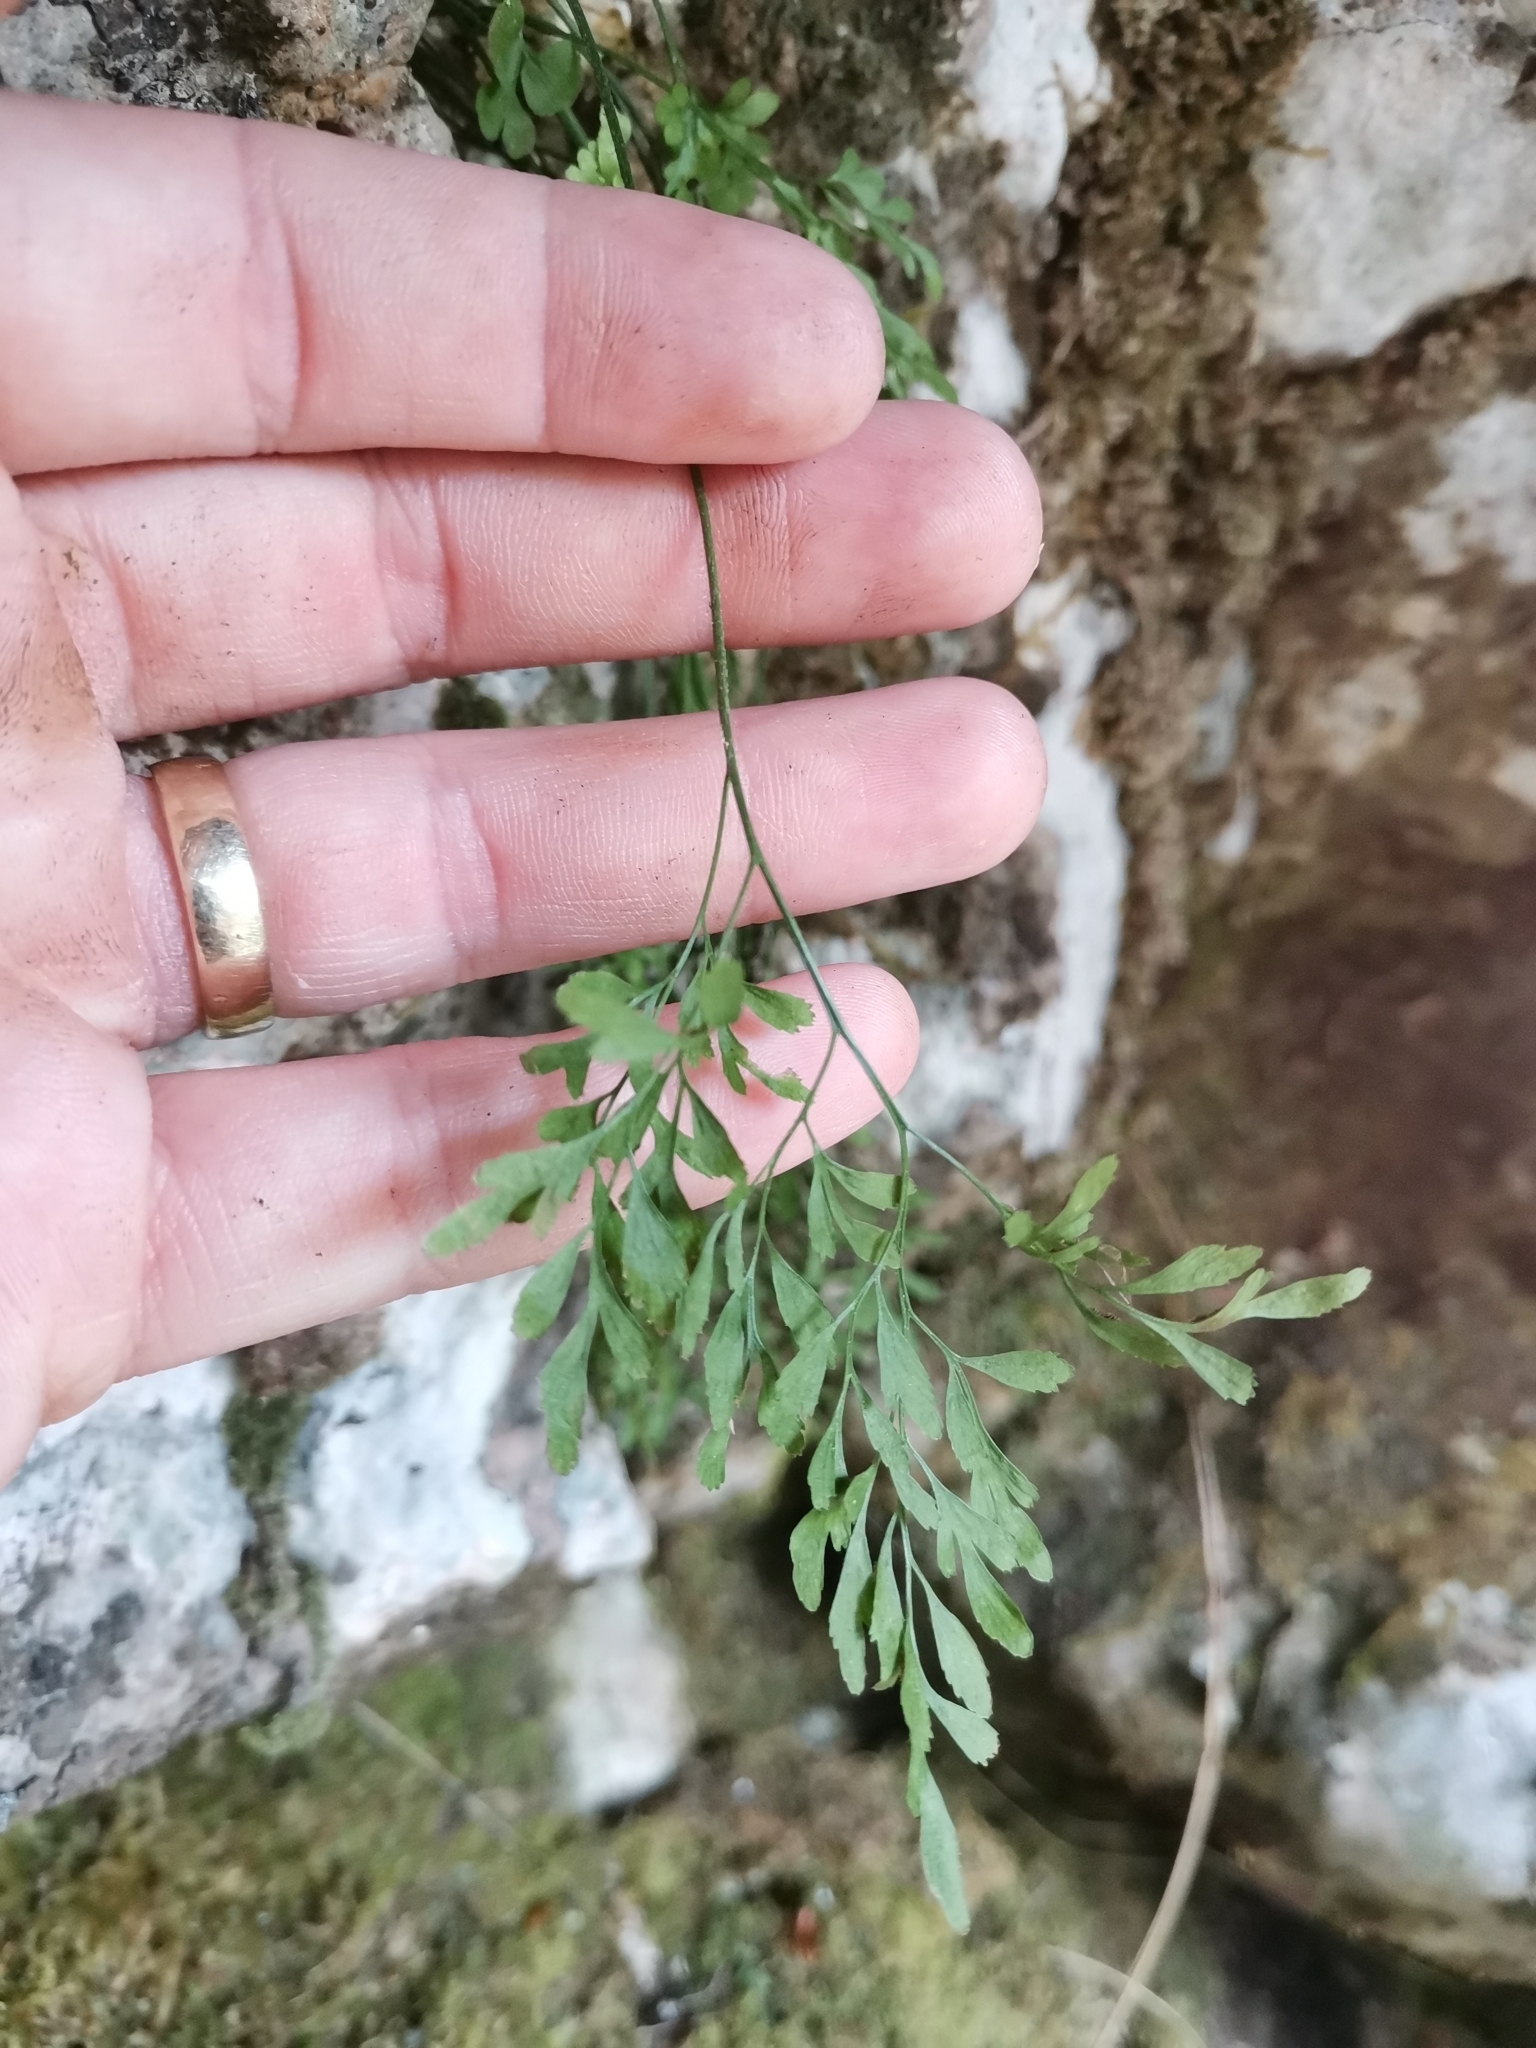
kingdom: Plantae
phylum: Tracheophyta
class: Polypodiopsida
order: Polypodiales
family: Aspleniaceae
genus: Asplenium
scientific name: Asplenium trichomanes
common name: Maidenhair spleenwort
